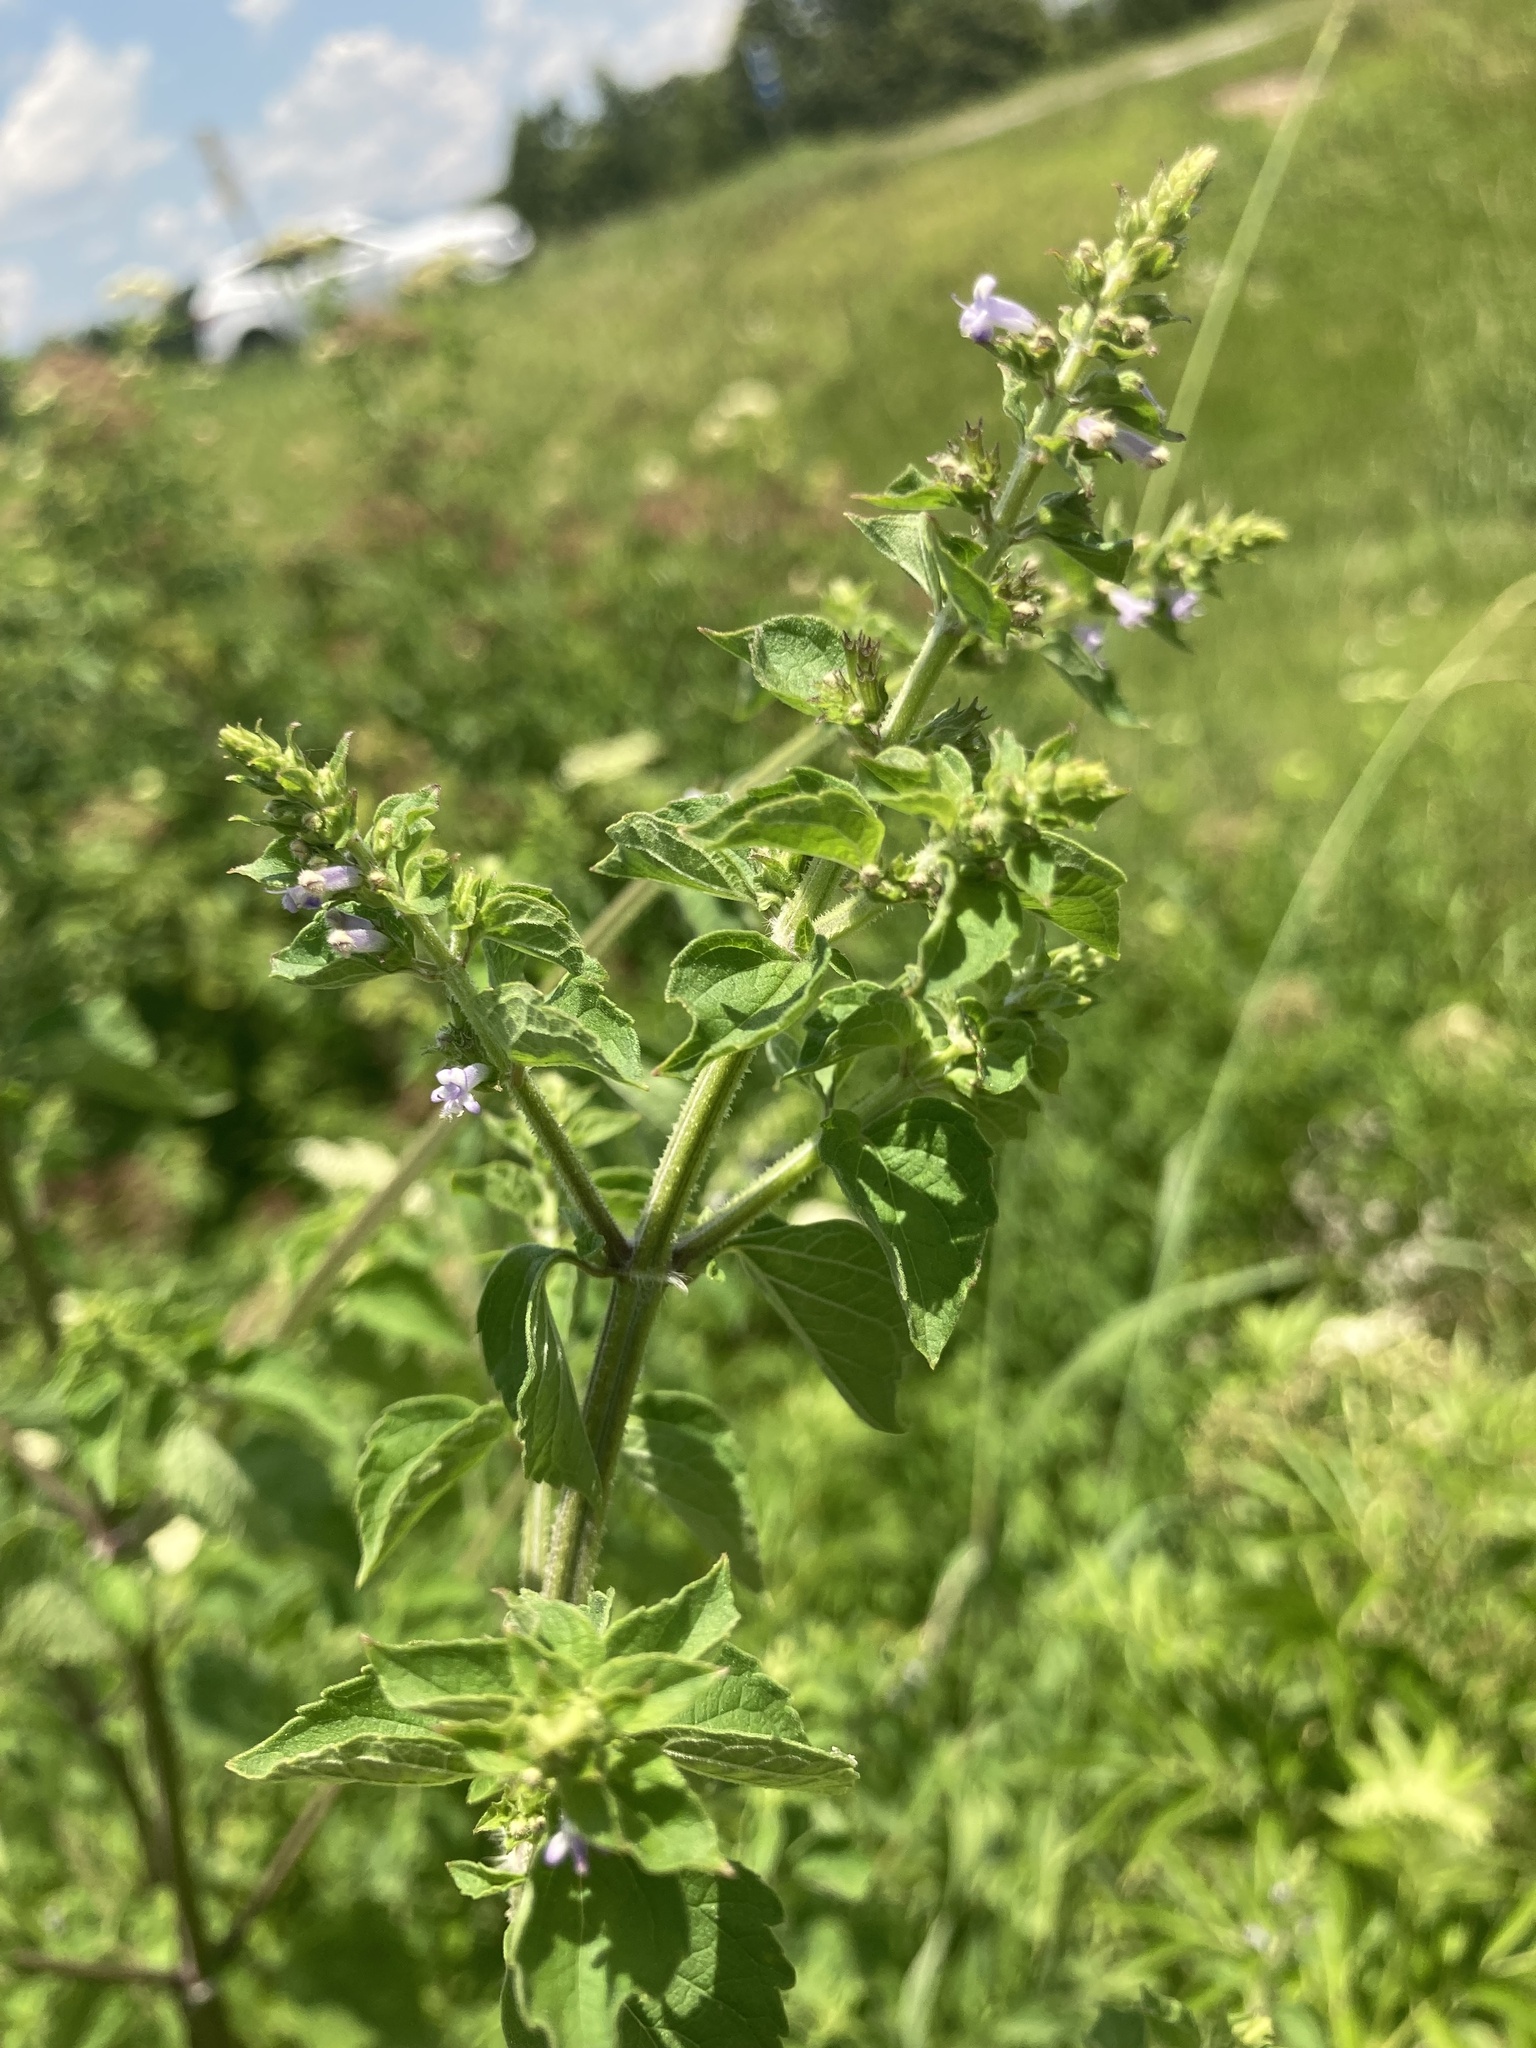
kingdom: Plantae
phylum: Tracheophyta
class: Magnoliopsida
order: Lamiales
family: Lamiaceae
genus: Cantinoa
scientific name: Cantinoa mutabilis
